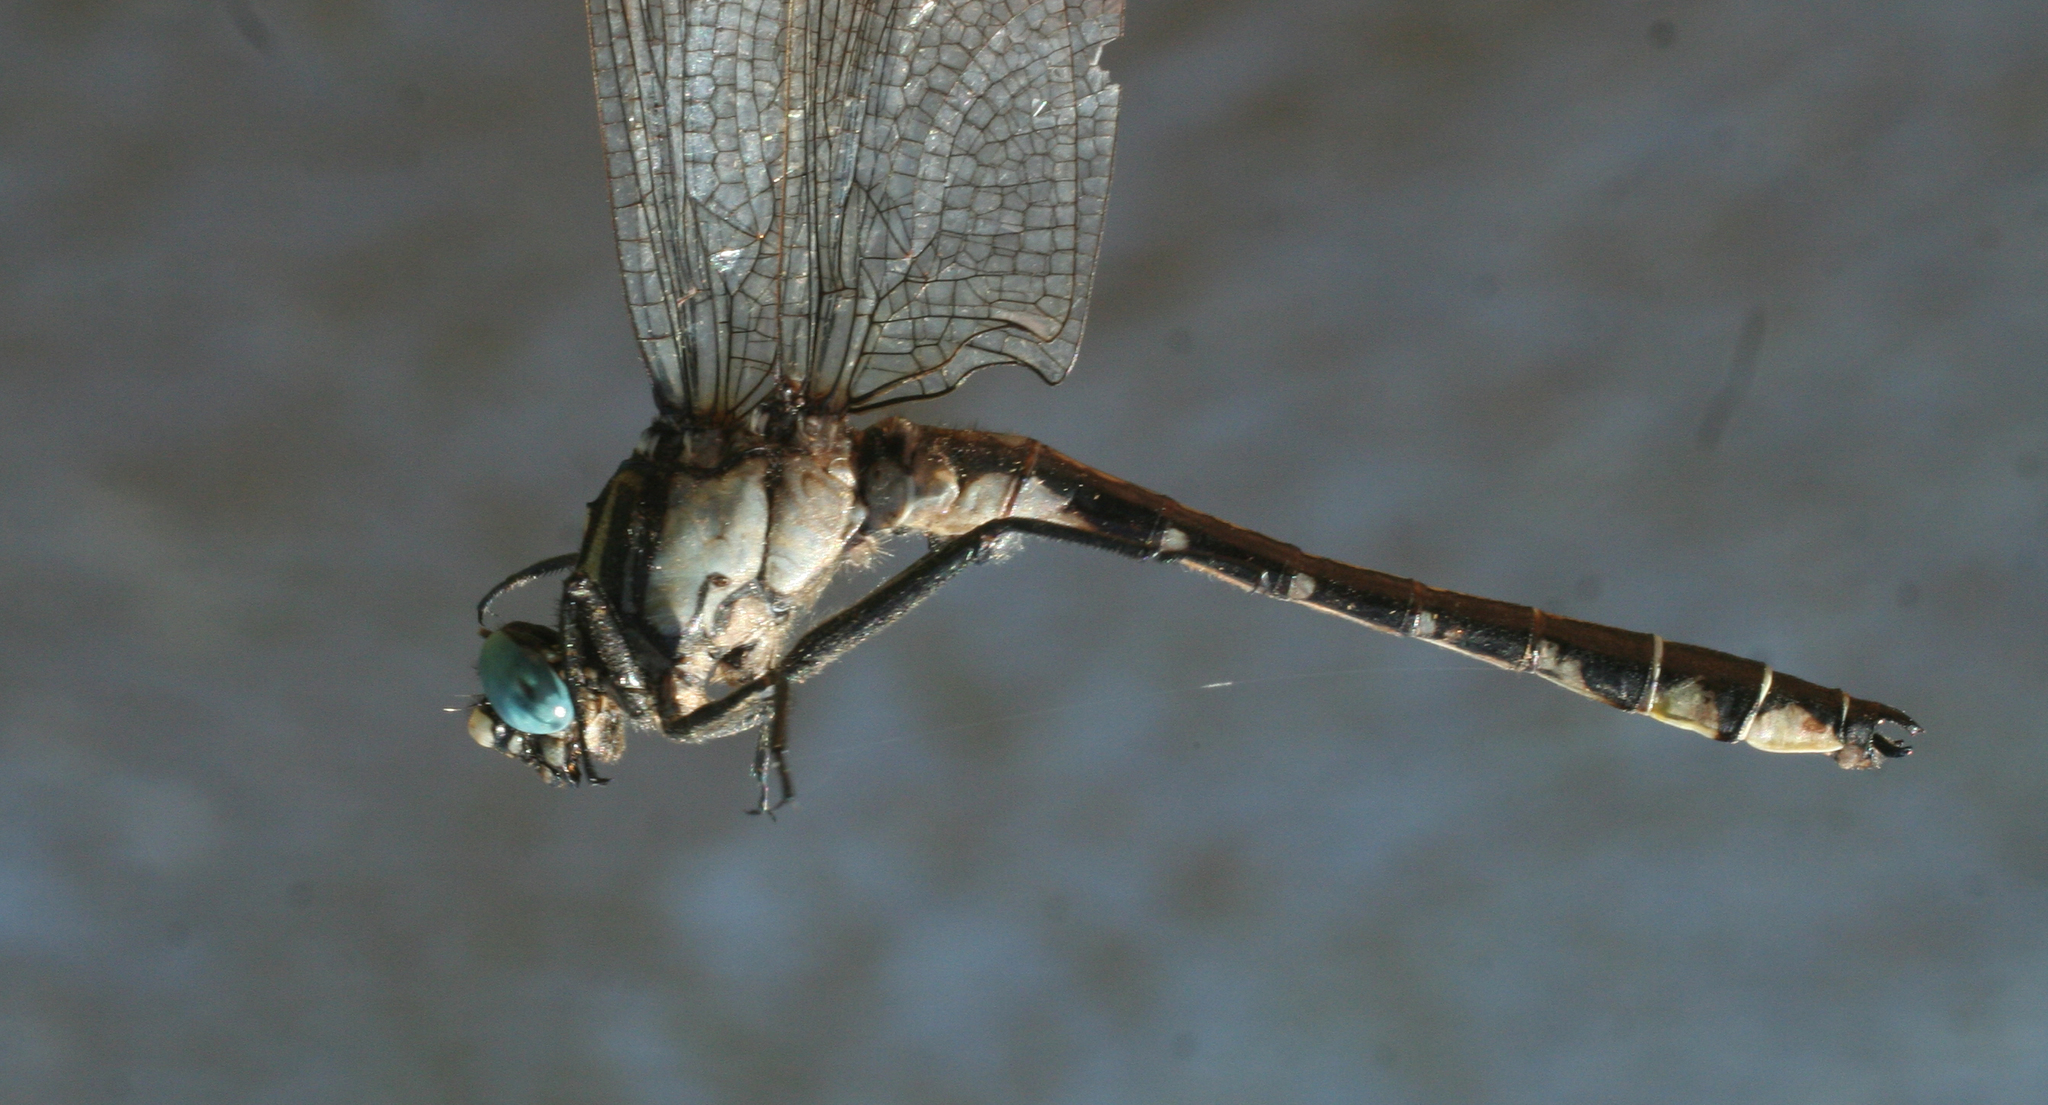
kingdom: Animalia
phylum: Arthropoda
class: Insecta
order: Odonata
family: Gomphidae
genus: Gomphus
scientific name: Gomphus vulgatissimus
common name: Club-tailed dragonfly
